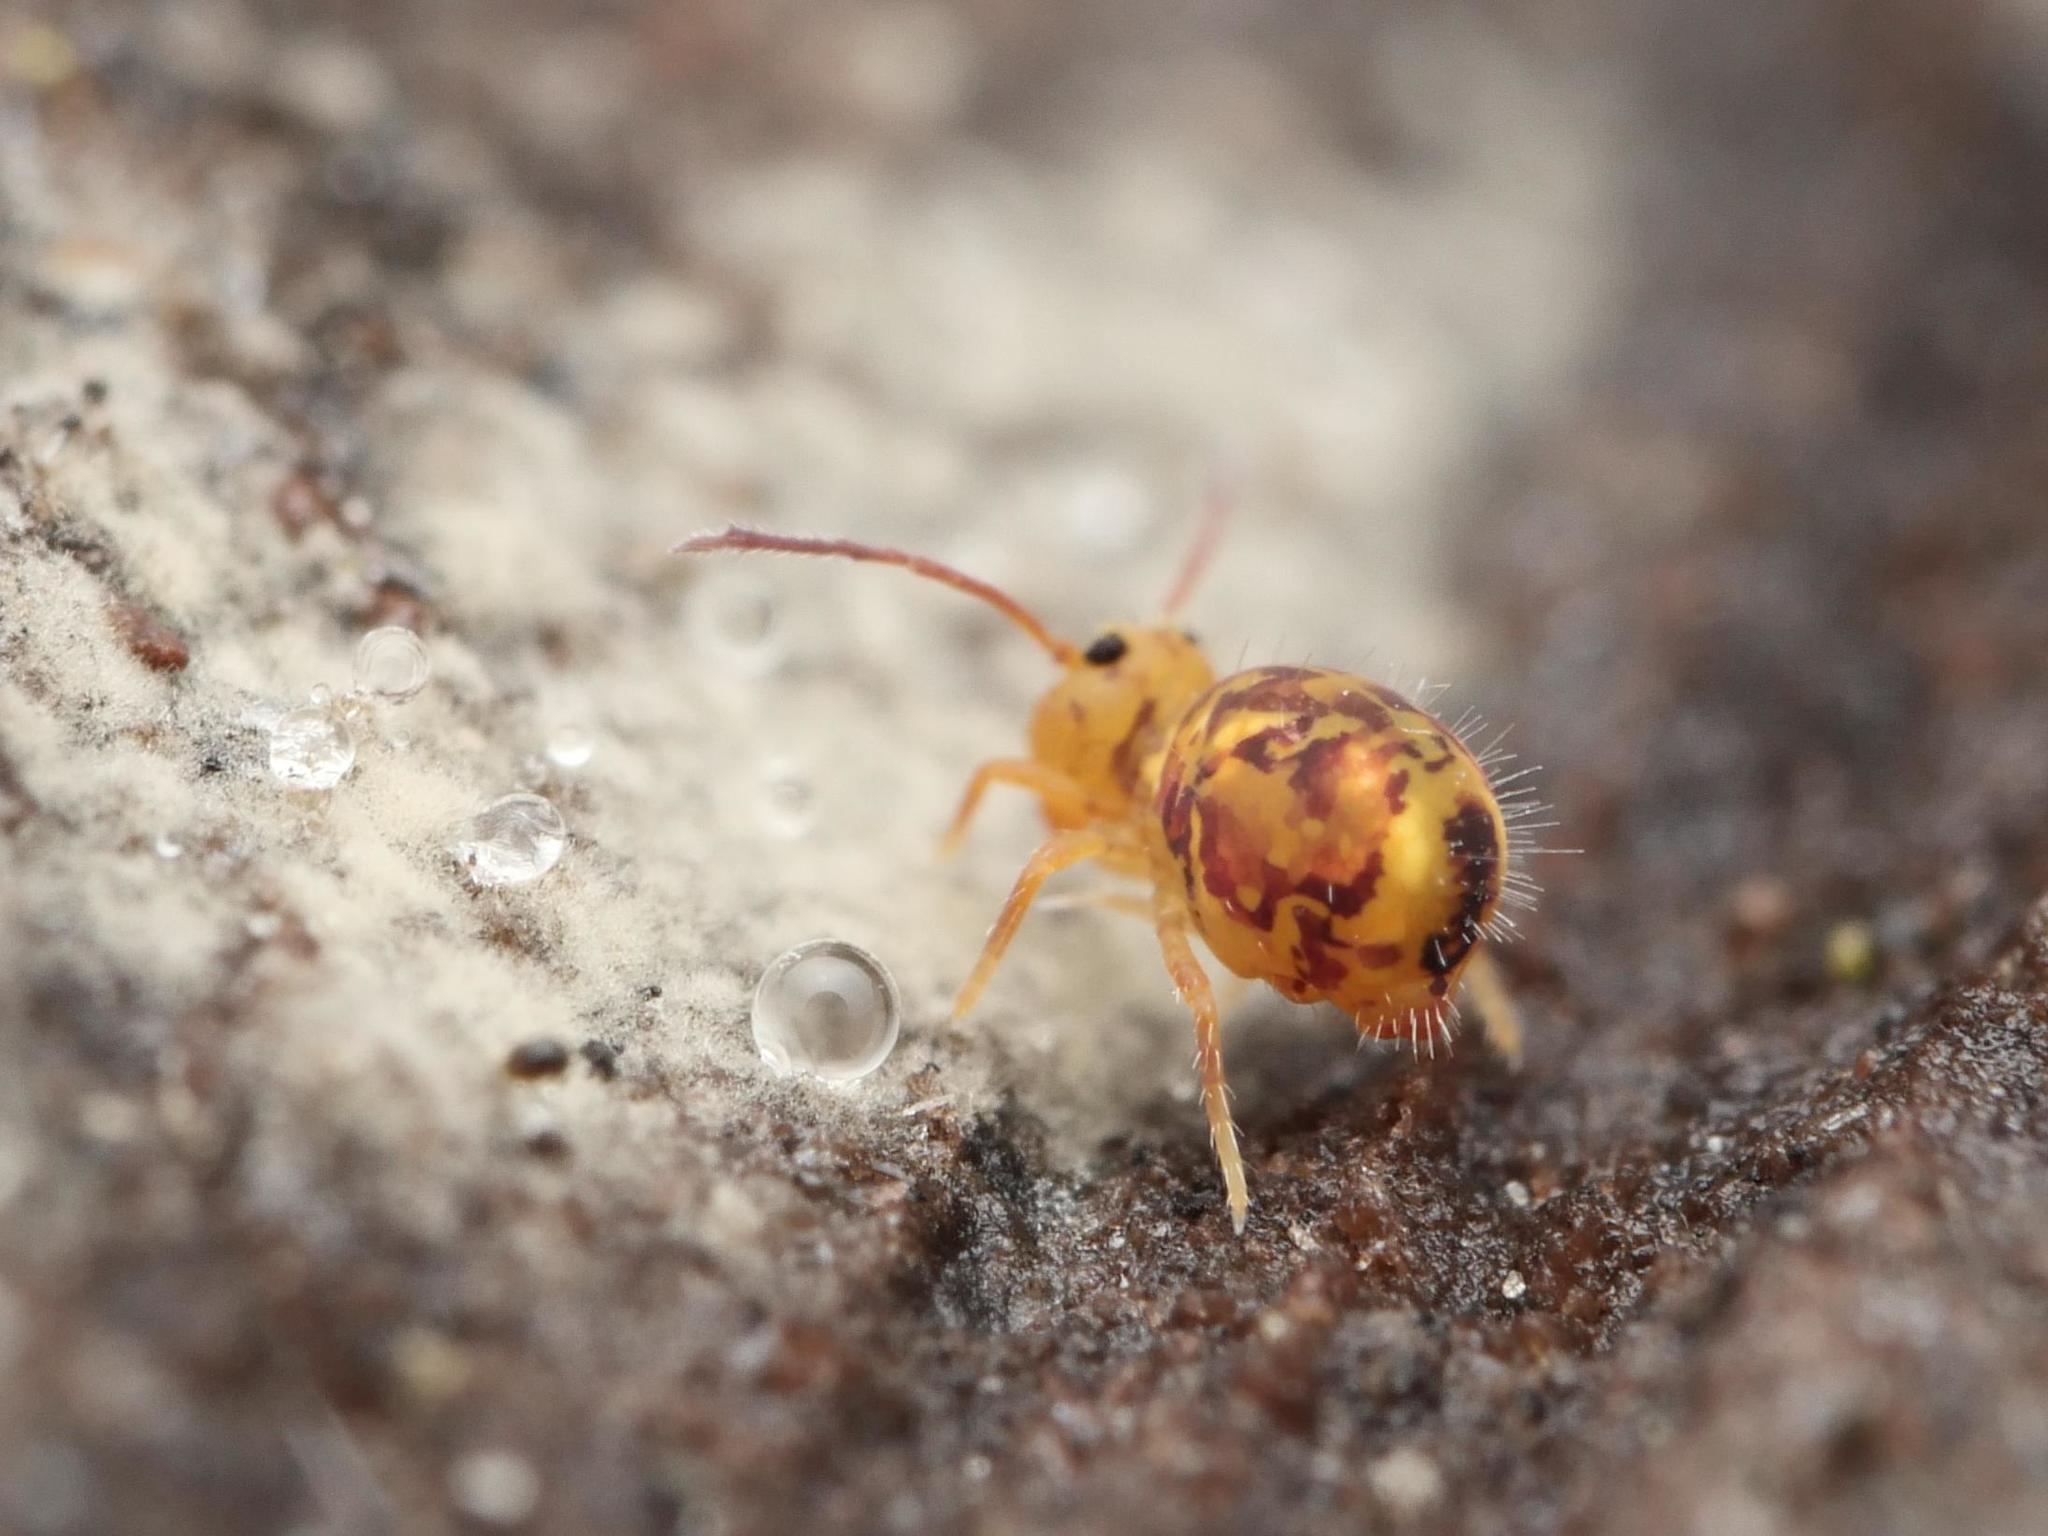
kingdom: Animalia
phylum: Arthropoda
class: Collembola
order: Symphypleona
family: Dicyrtomidae
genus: Dicyrtomina
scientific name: Dicyrtomina ornata
